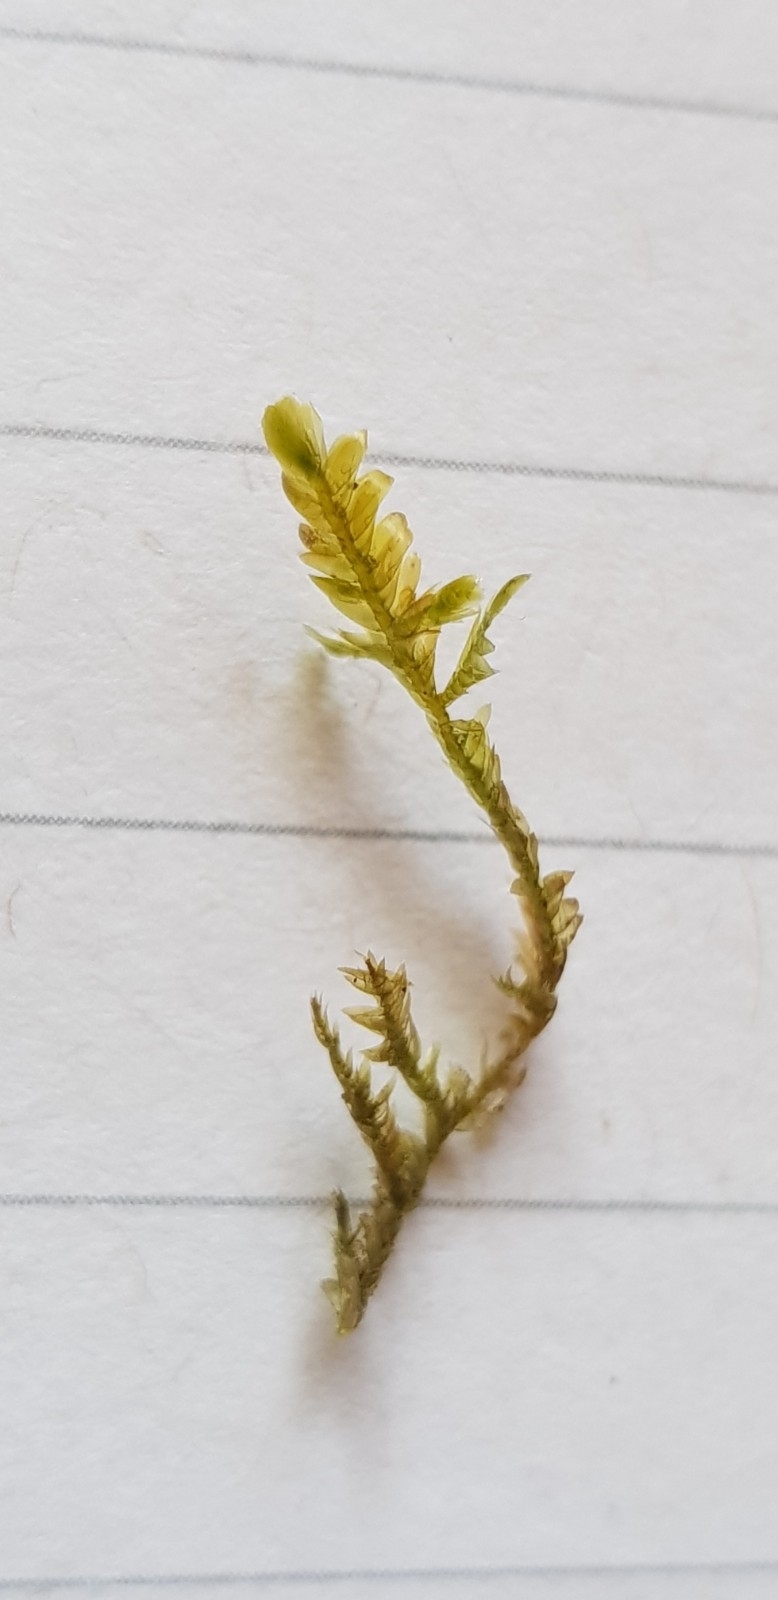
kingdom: Plantae
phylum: Bryophyta
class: Bryopsida
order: Hypnales
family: Neckeraceae
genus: Alleniella
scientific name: Alleniella complanata
